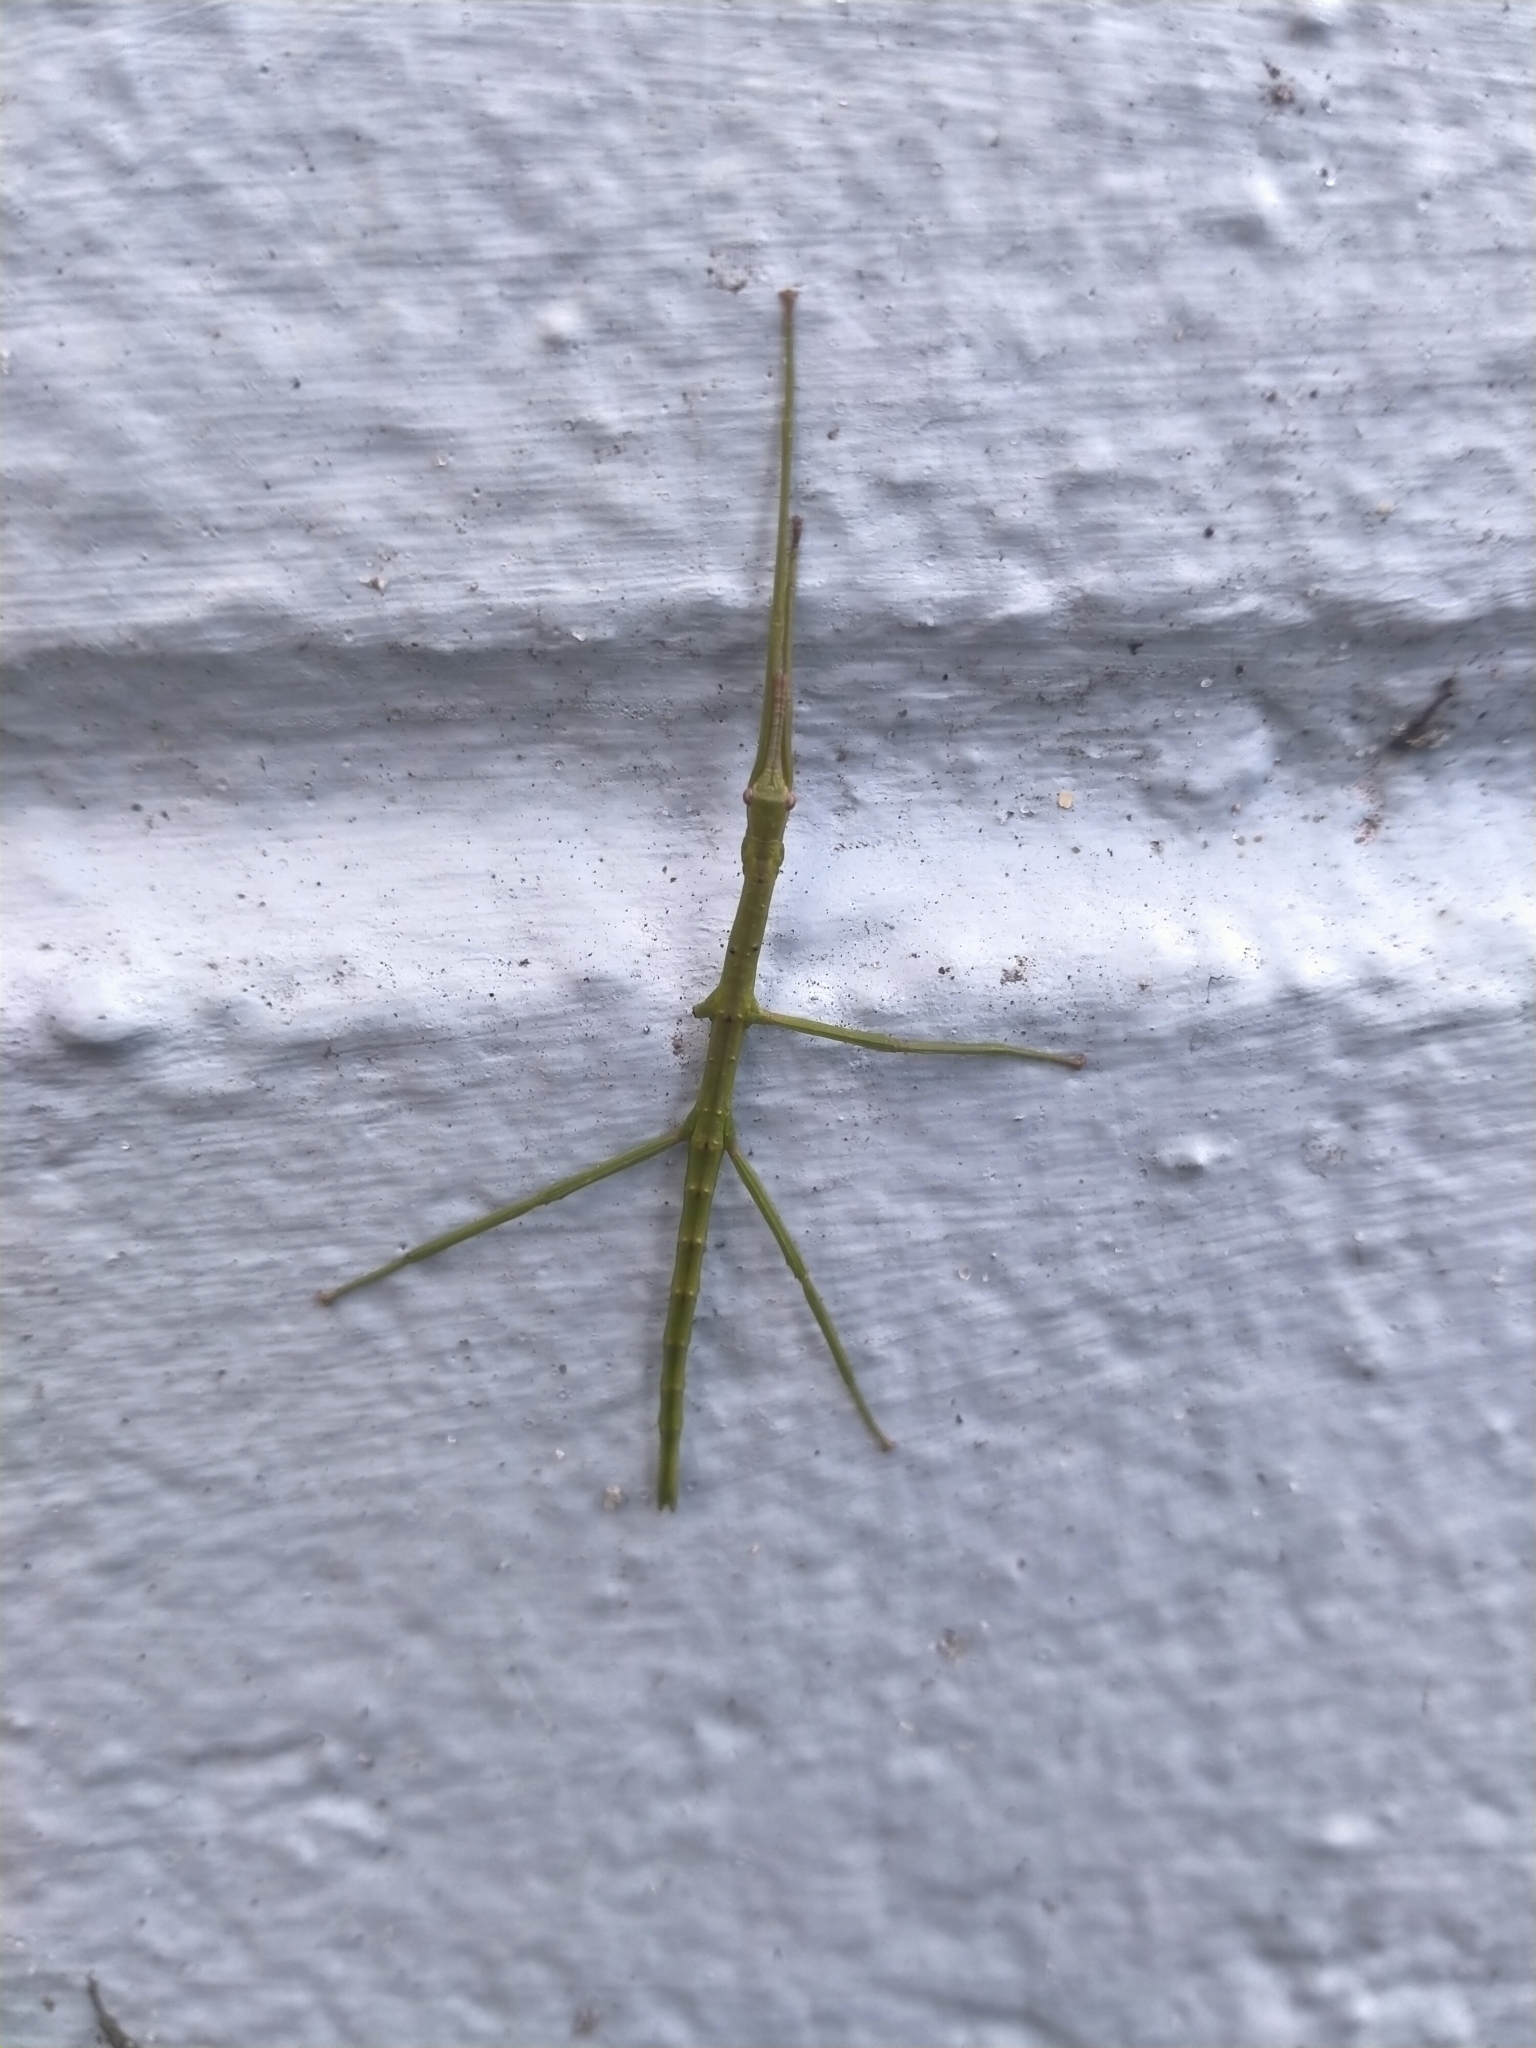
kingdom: Animalia
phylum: Arthropoda
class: Insecta
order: Phasmida
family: Phasmatidae
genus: Acanthoxyla
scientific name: Acanthoxyla prasina
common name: Black-spined stick insect
